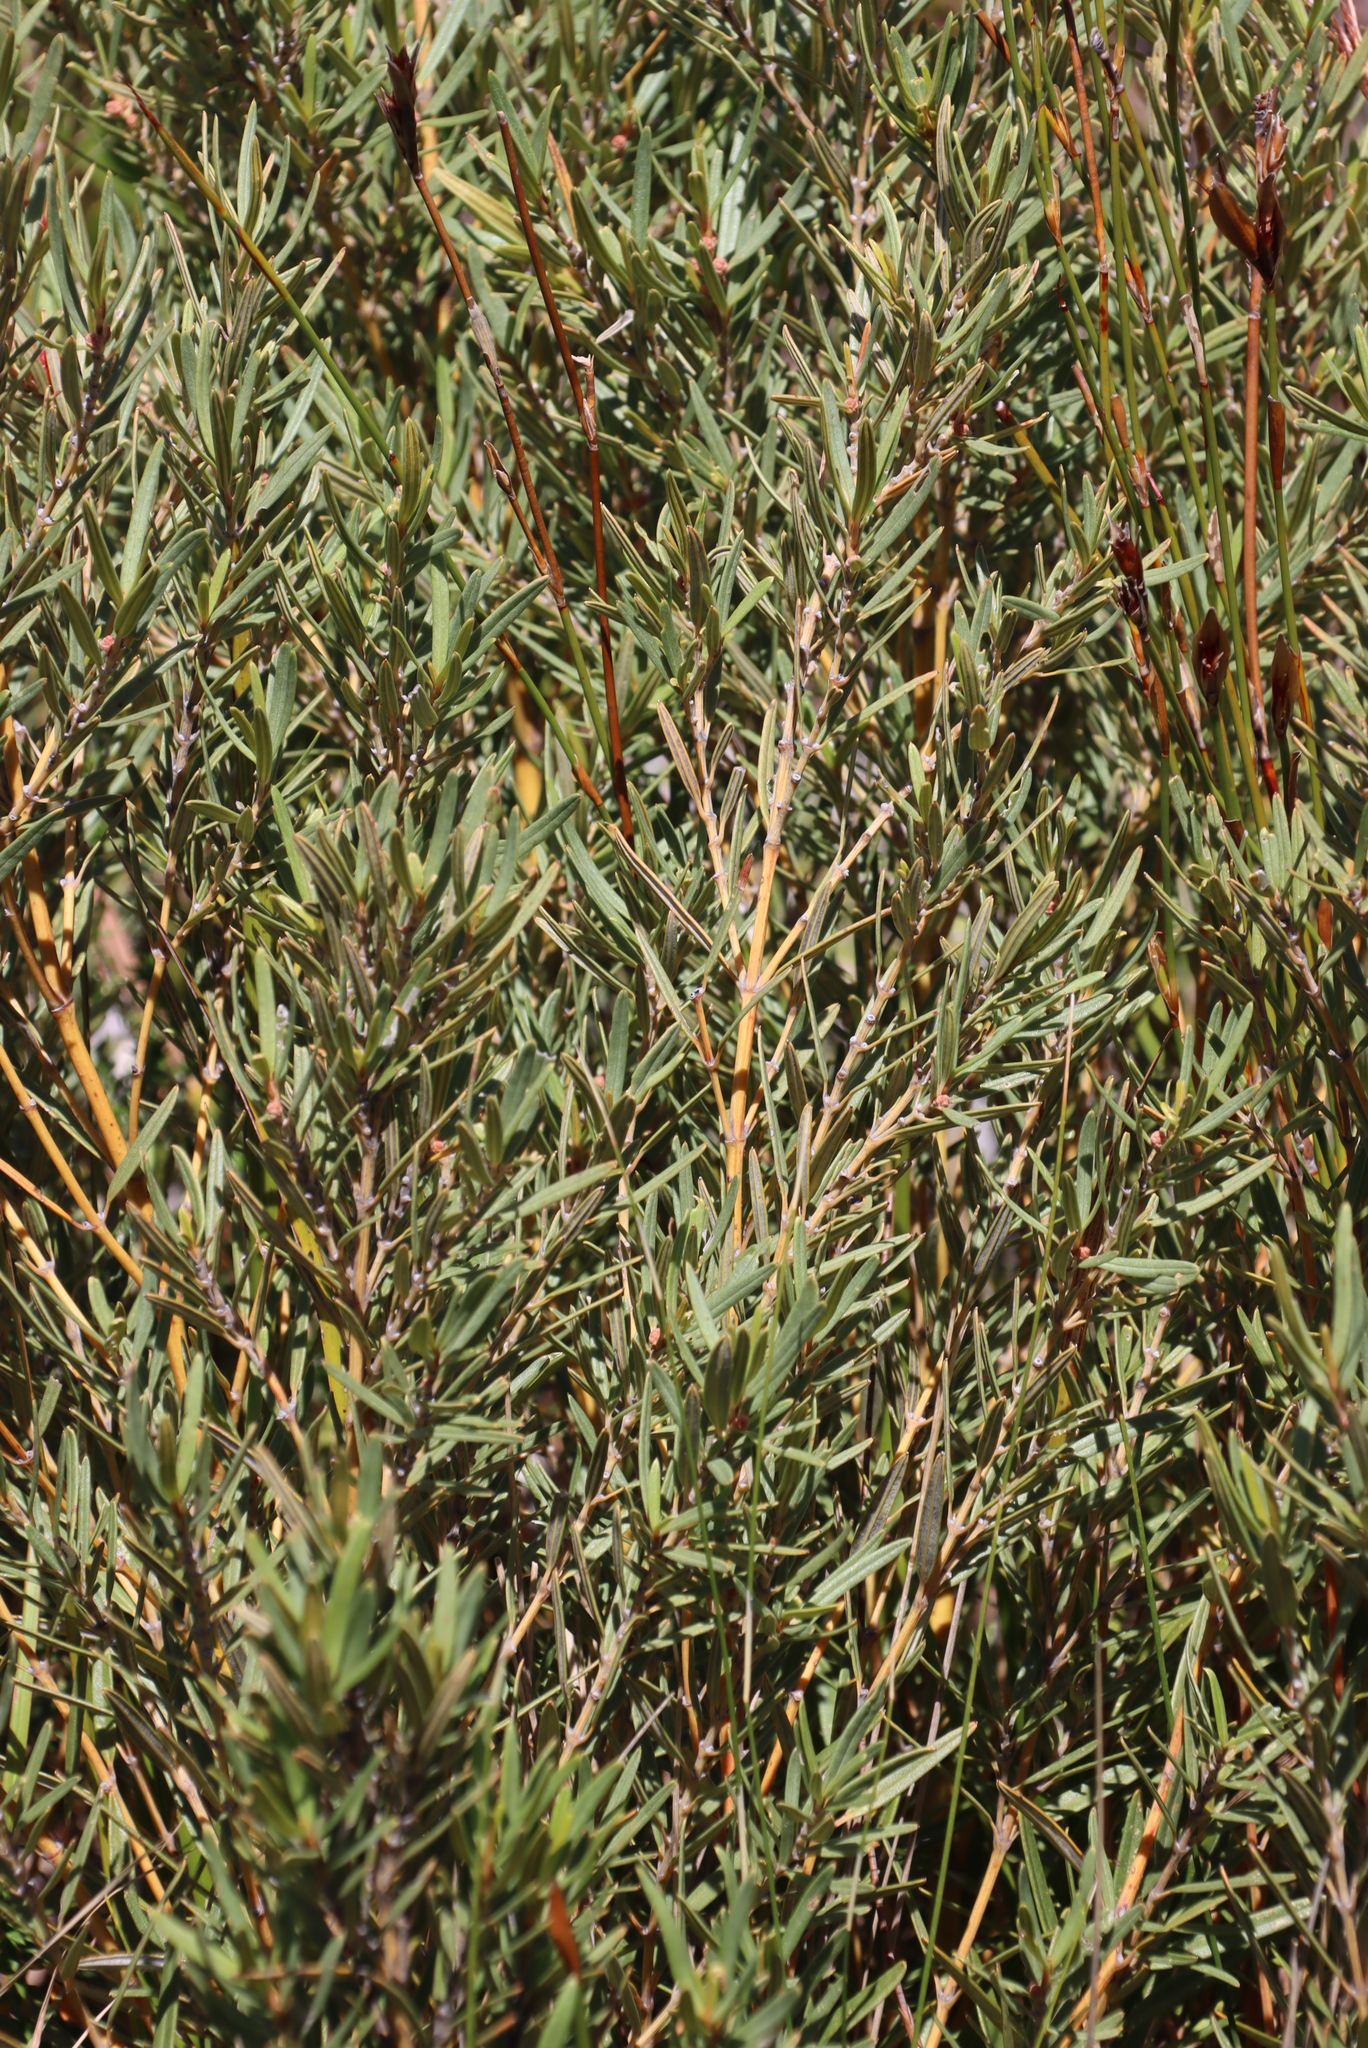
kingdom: Plantae
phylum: Tracheophyta
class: Magnoliopsida
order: Cornales
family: Grubbiaceae
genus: Grubbia
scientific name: Grubbia tomentosa
